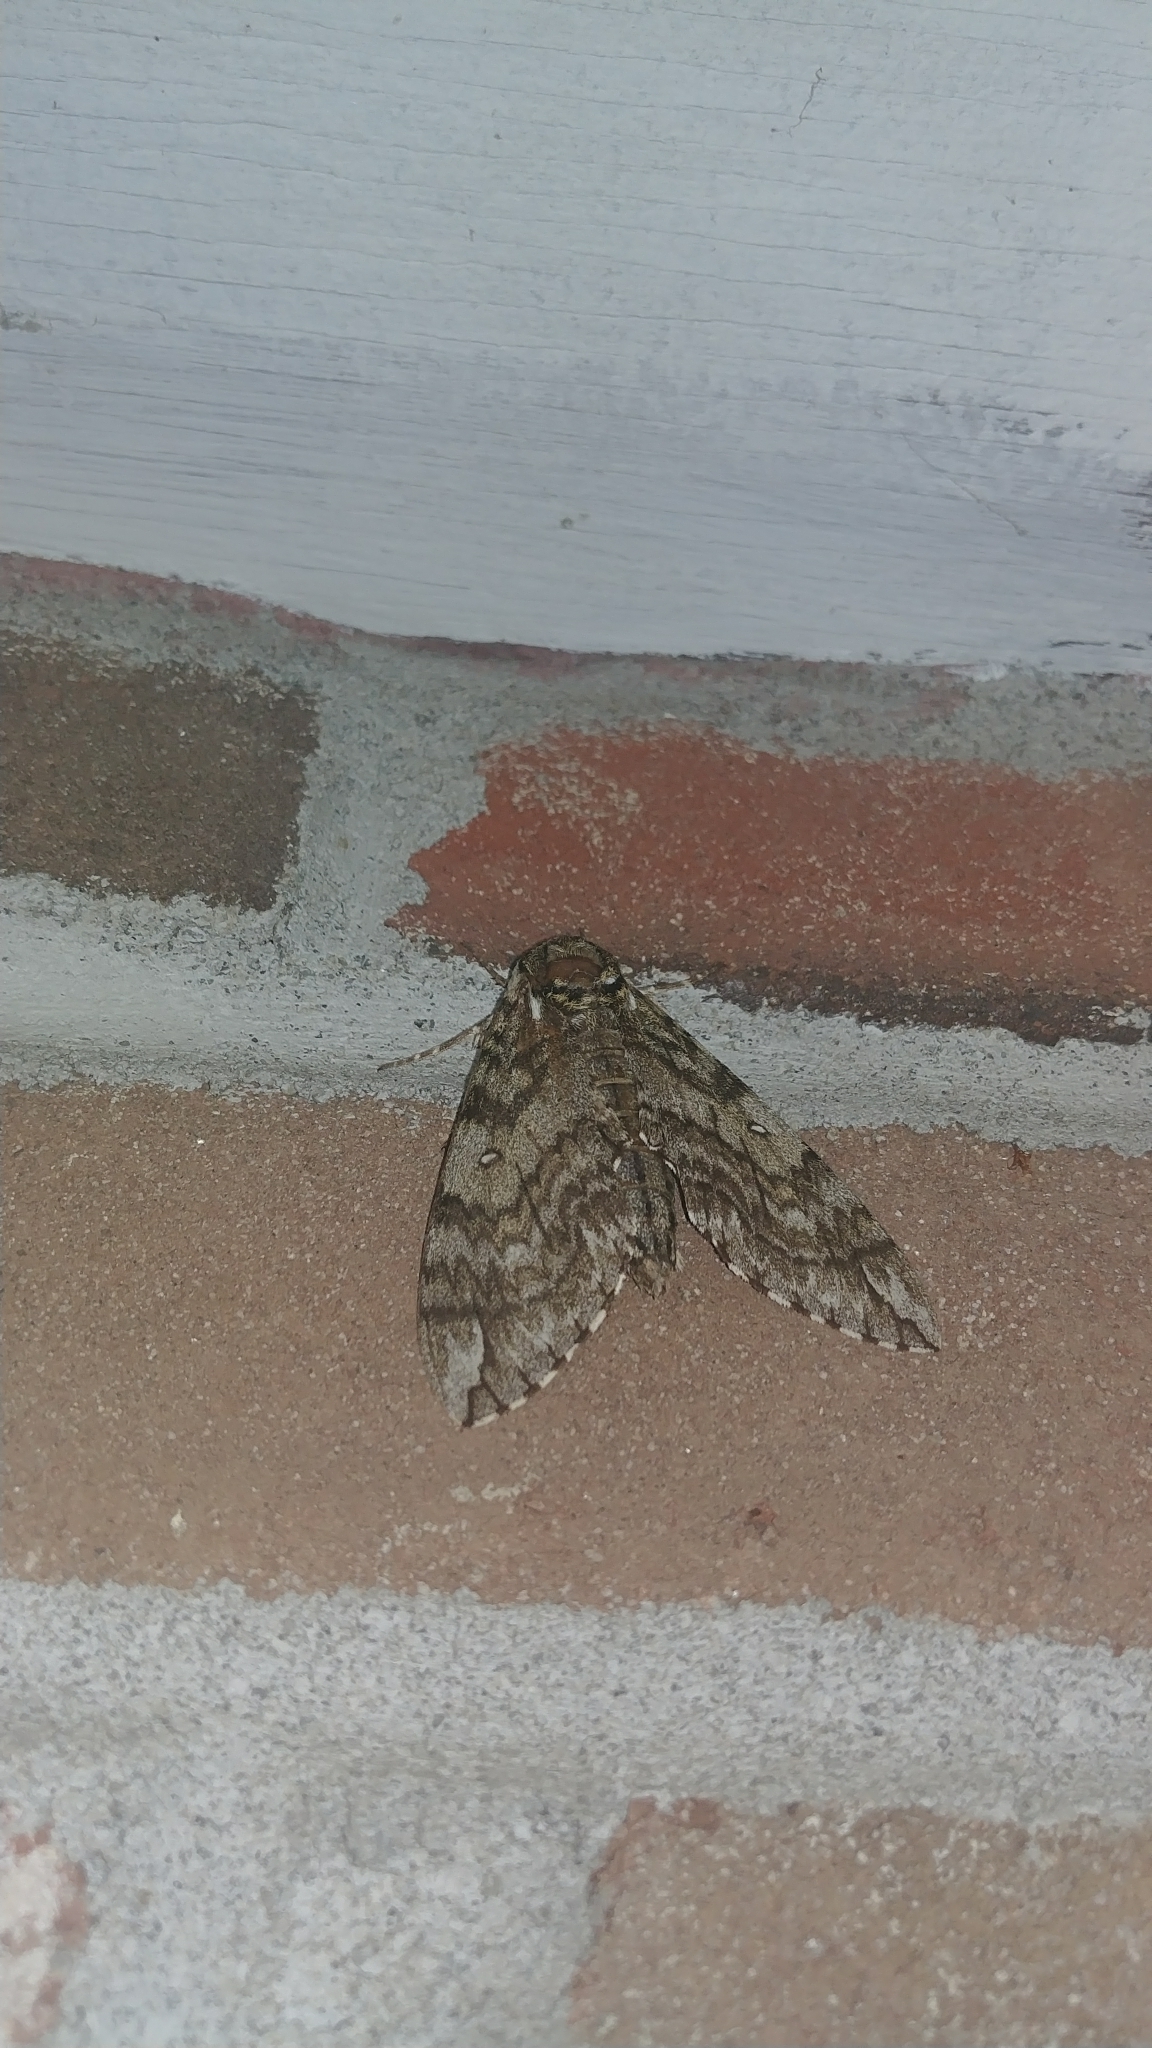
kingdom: Animalia
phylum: Arthropoda
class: Insecta
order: Lepidoptera
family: Sphingidae
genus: Ceratomia
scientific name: Ceratomia undulosa
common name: Waved sphinx
